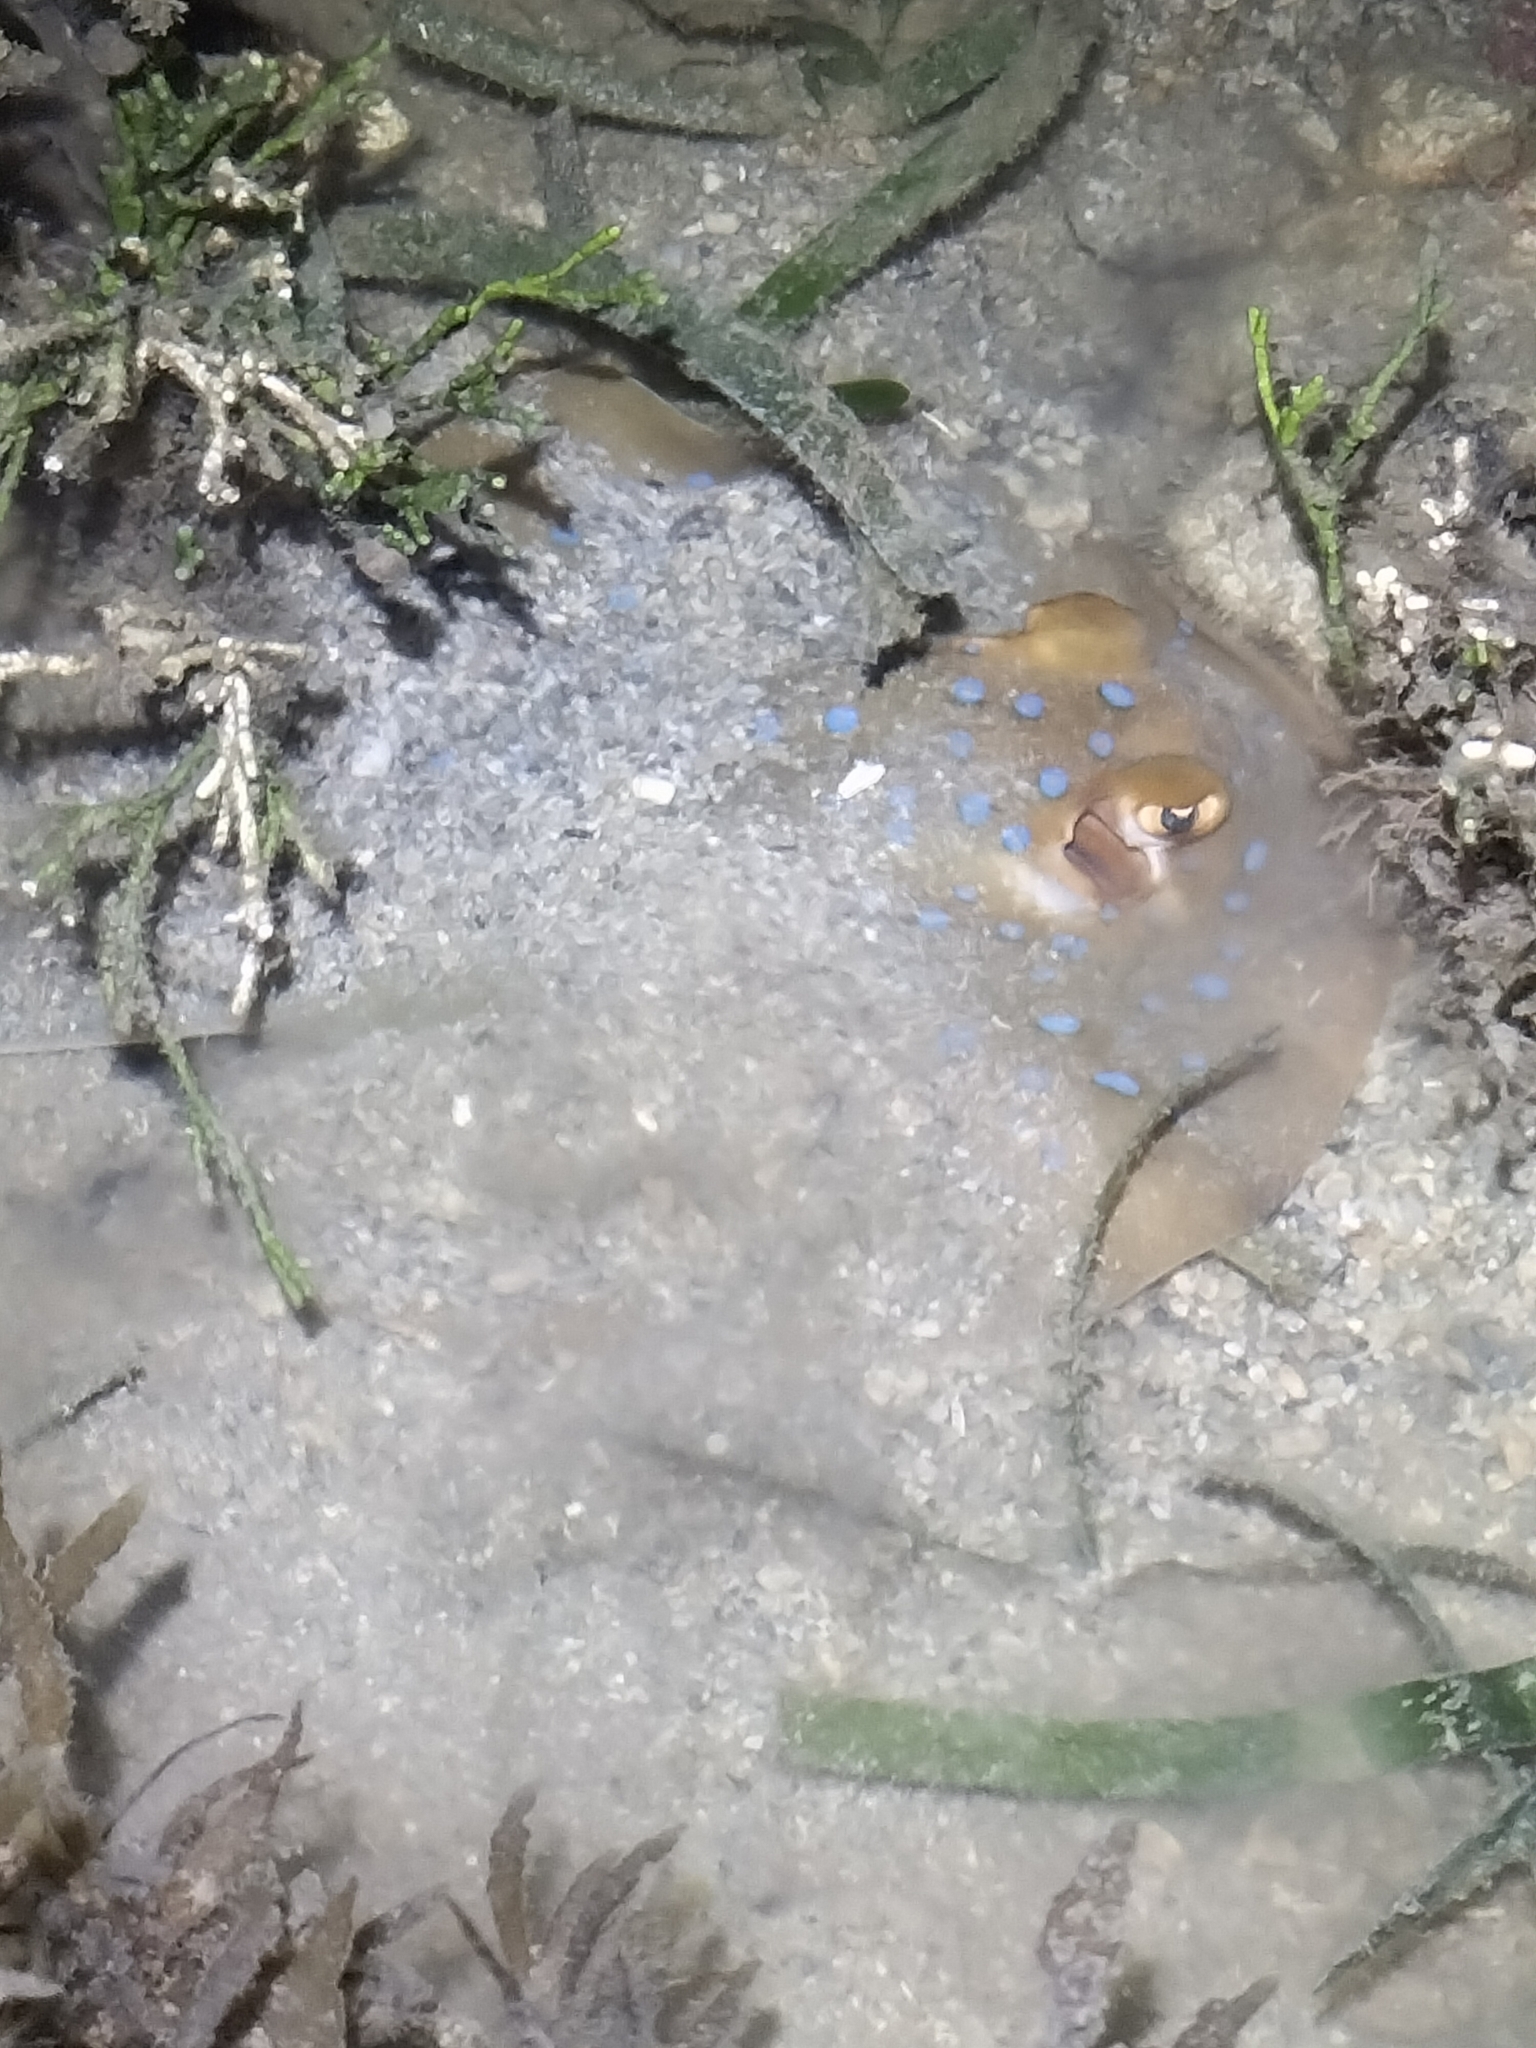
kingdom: Animalia
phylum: Chordata
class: Elasmobranchii
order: Myliobatiformes
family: Dasyatidae
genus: Taeniura
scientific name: Taeniura lymma
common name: Bluespotted ribbontail ray
